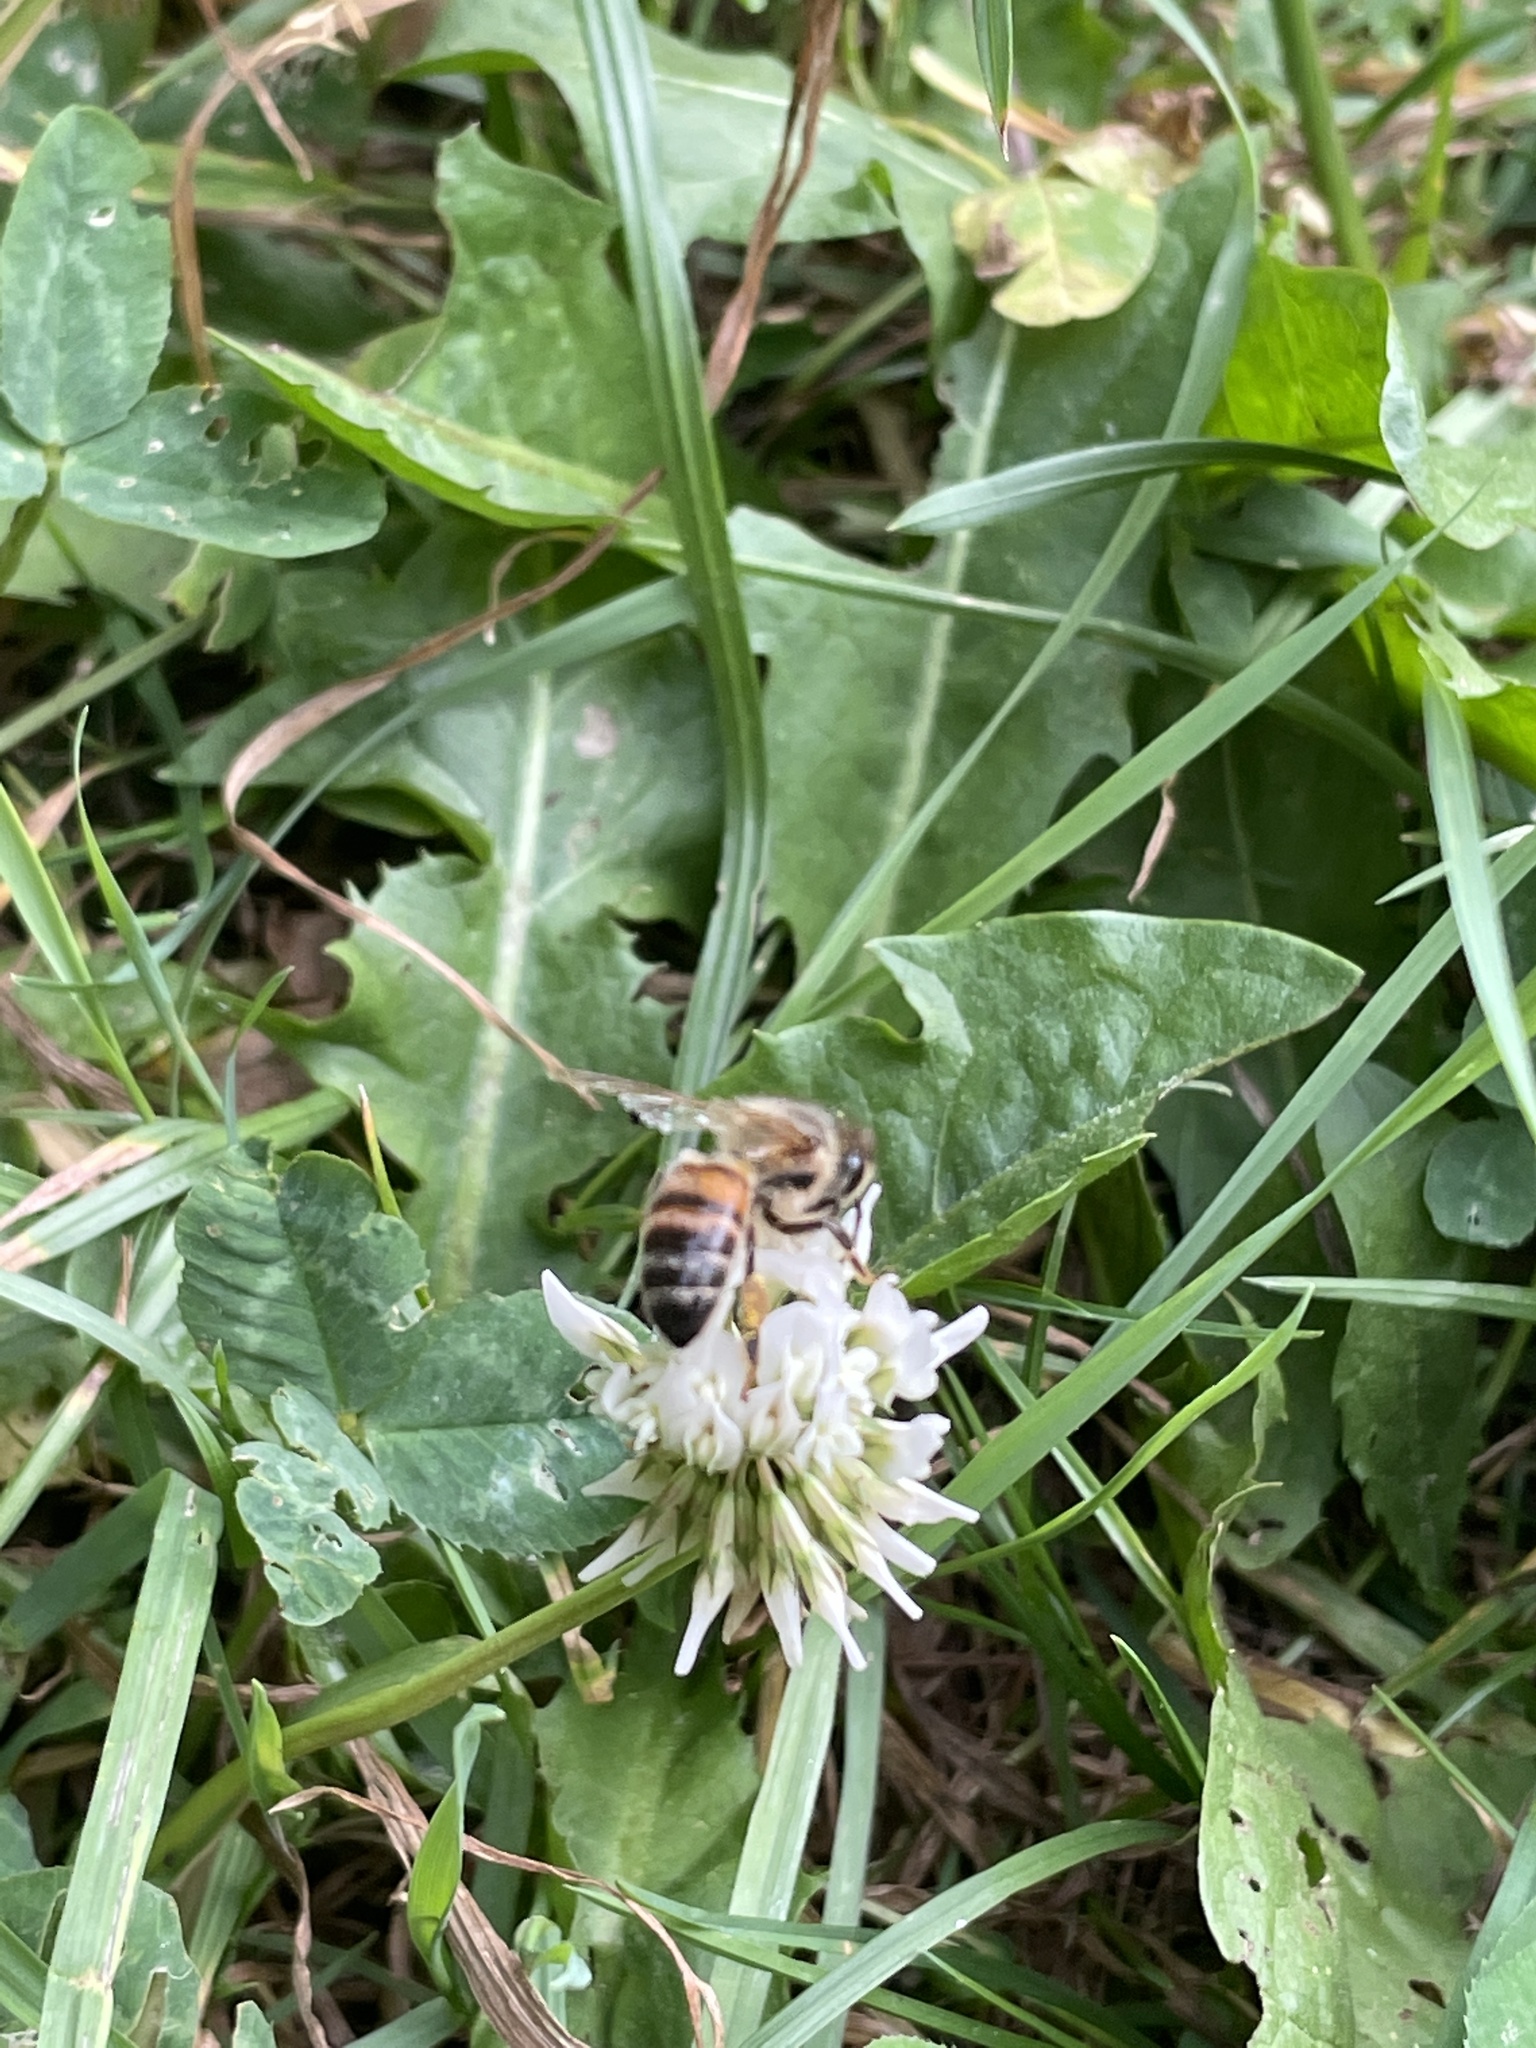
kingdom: Animalia
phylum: Arthropoda
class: Insecta
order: Hymenoptera
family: Apidae
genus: Apis
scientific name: Apis mellifera
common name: Honey bee
